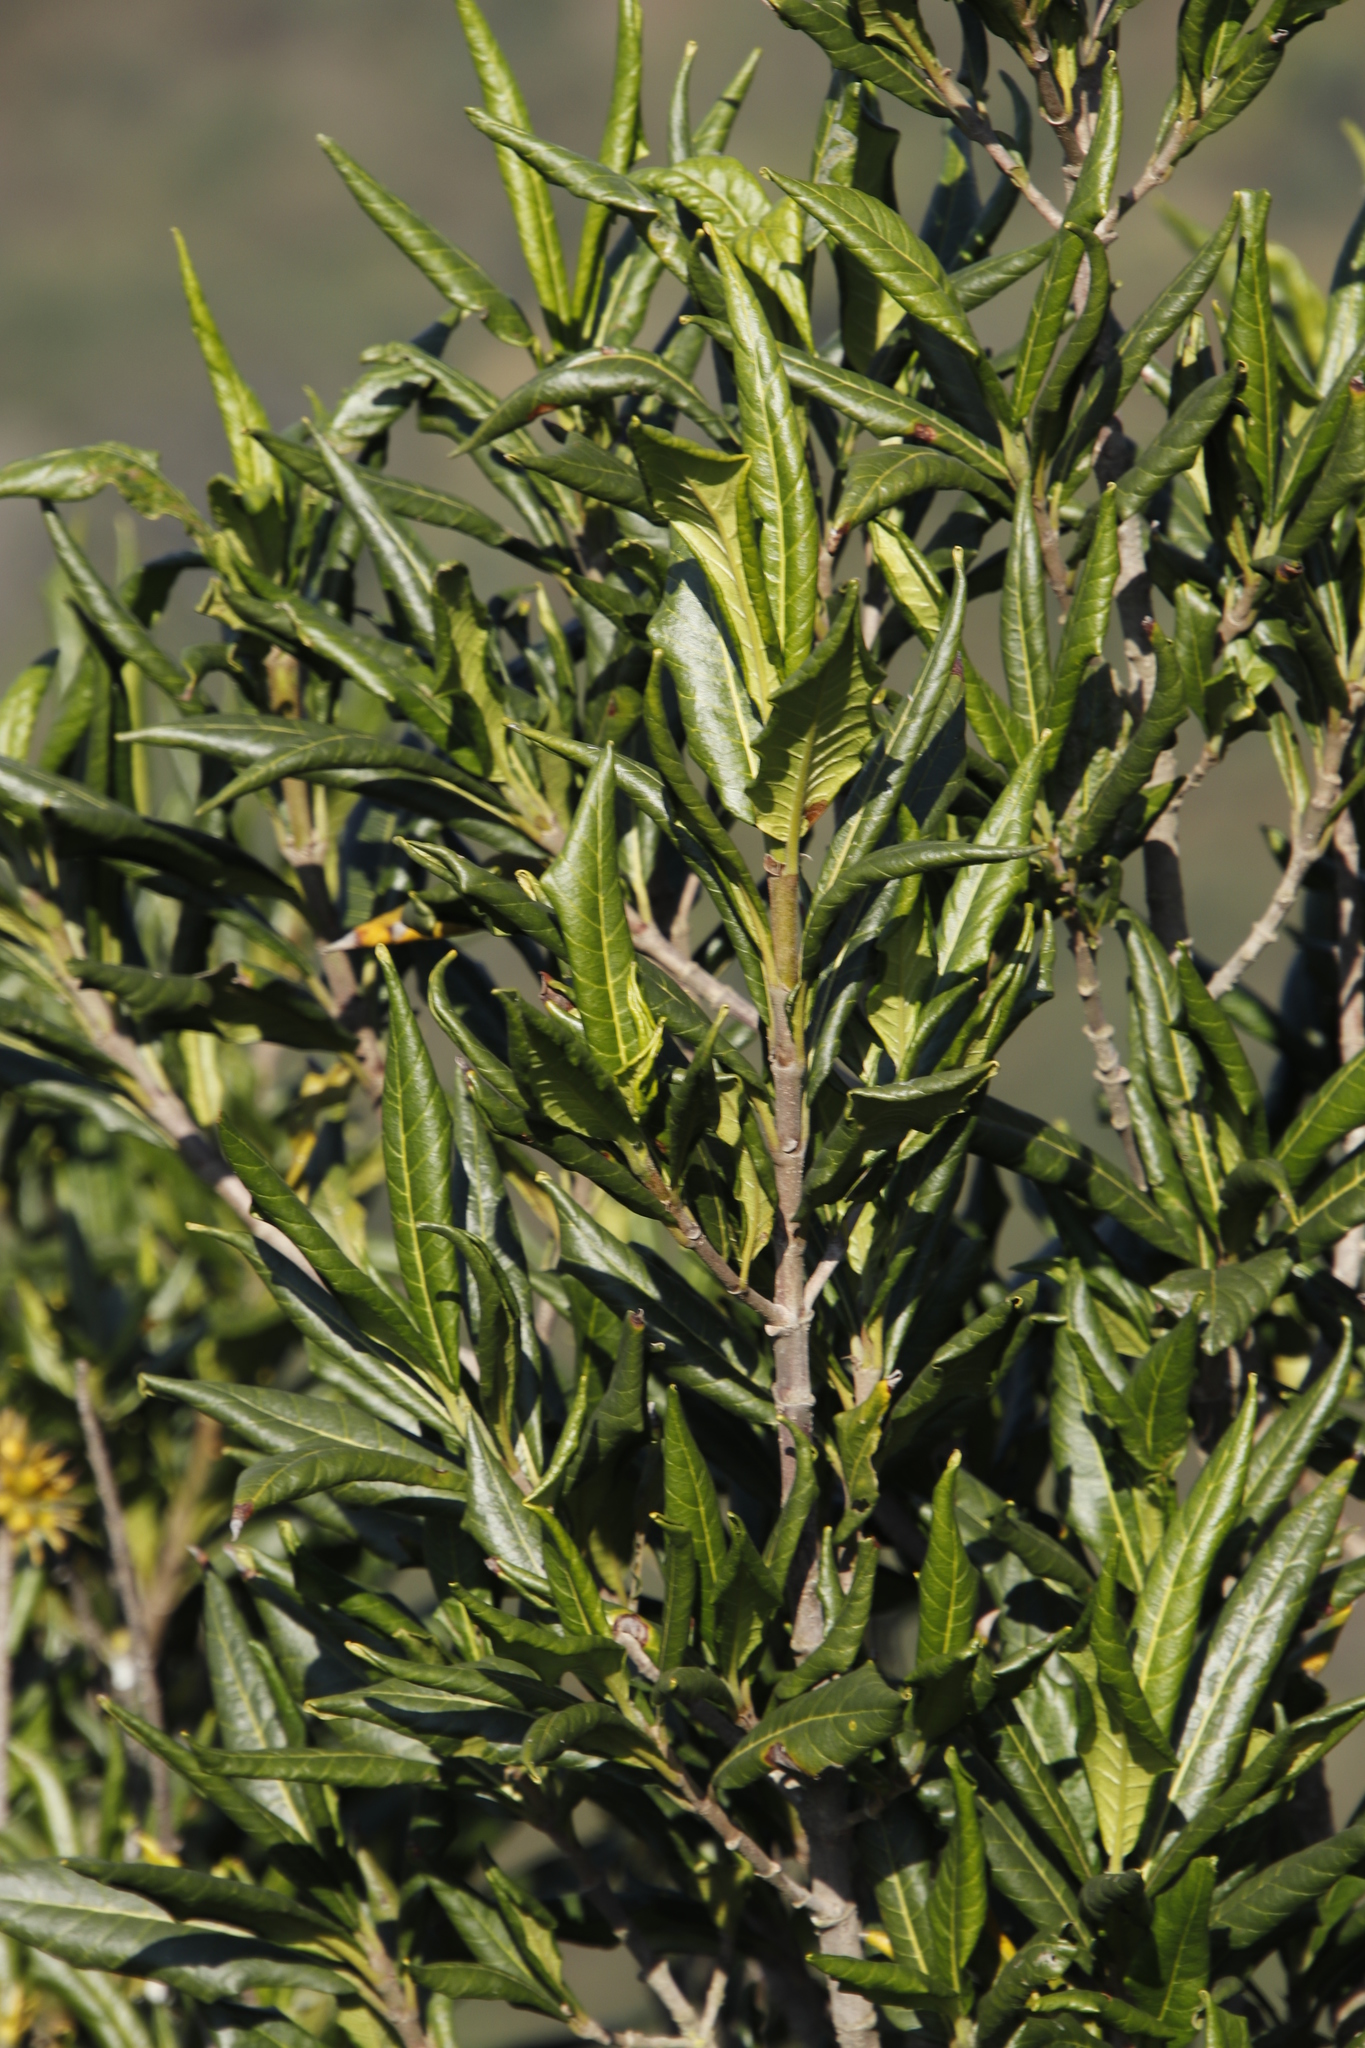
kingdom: Plantae
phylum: Tracheophyta
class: Magnoliopsida
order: Apiales
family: Pittosporaceae
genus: Pittosporum
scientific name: Pittosporum viridiflorum
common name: Cape cheesewood
